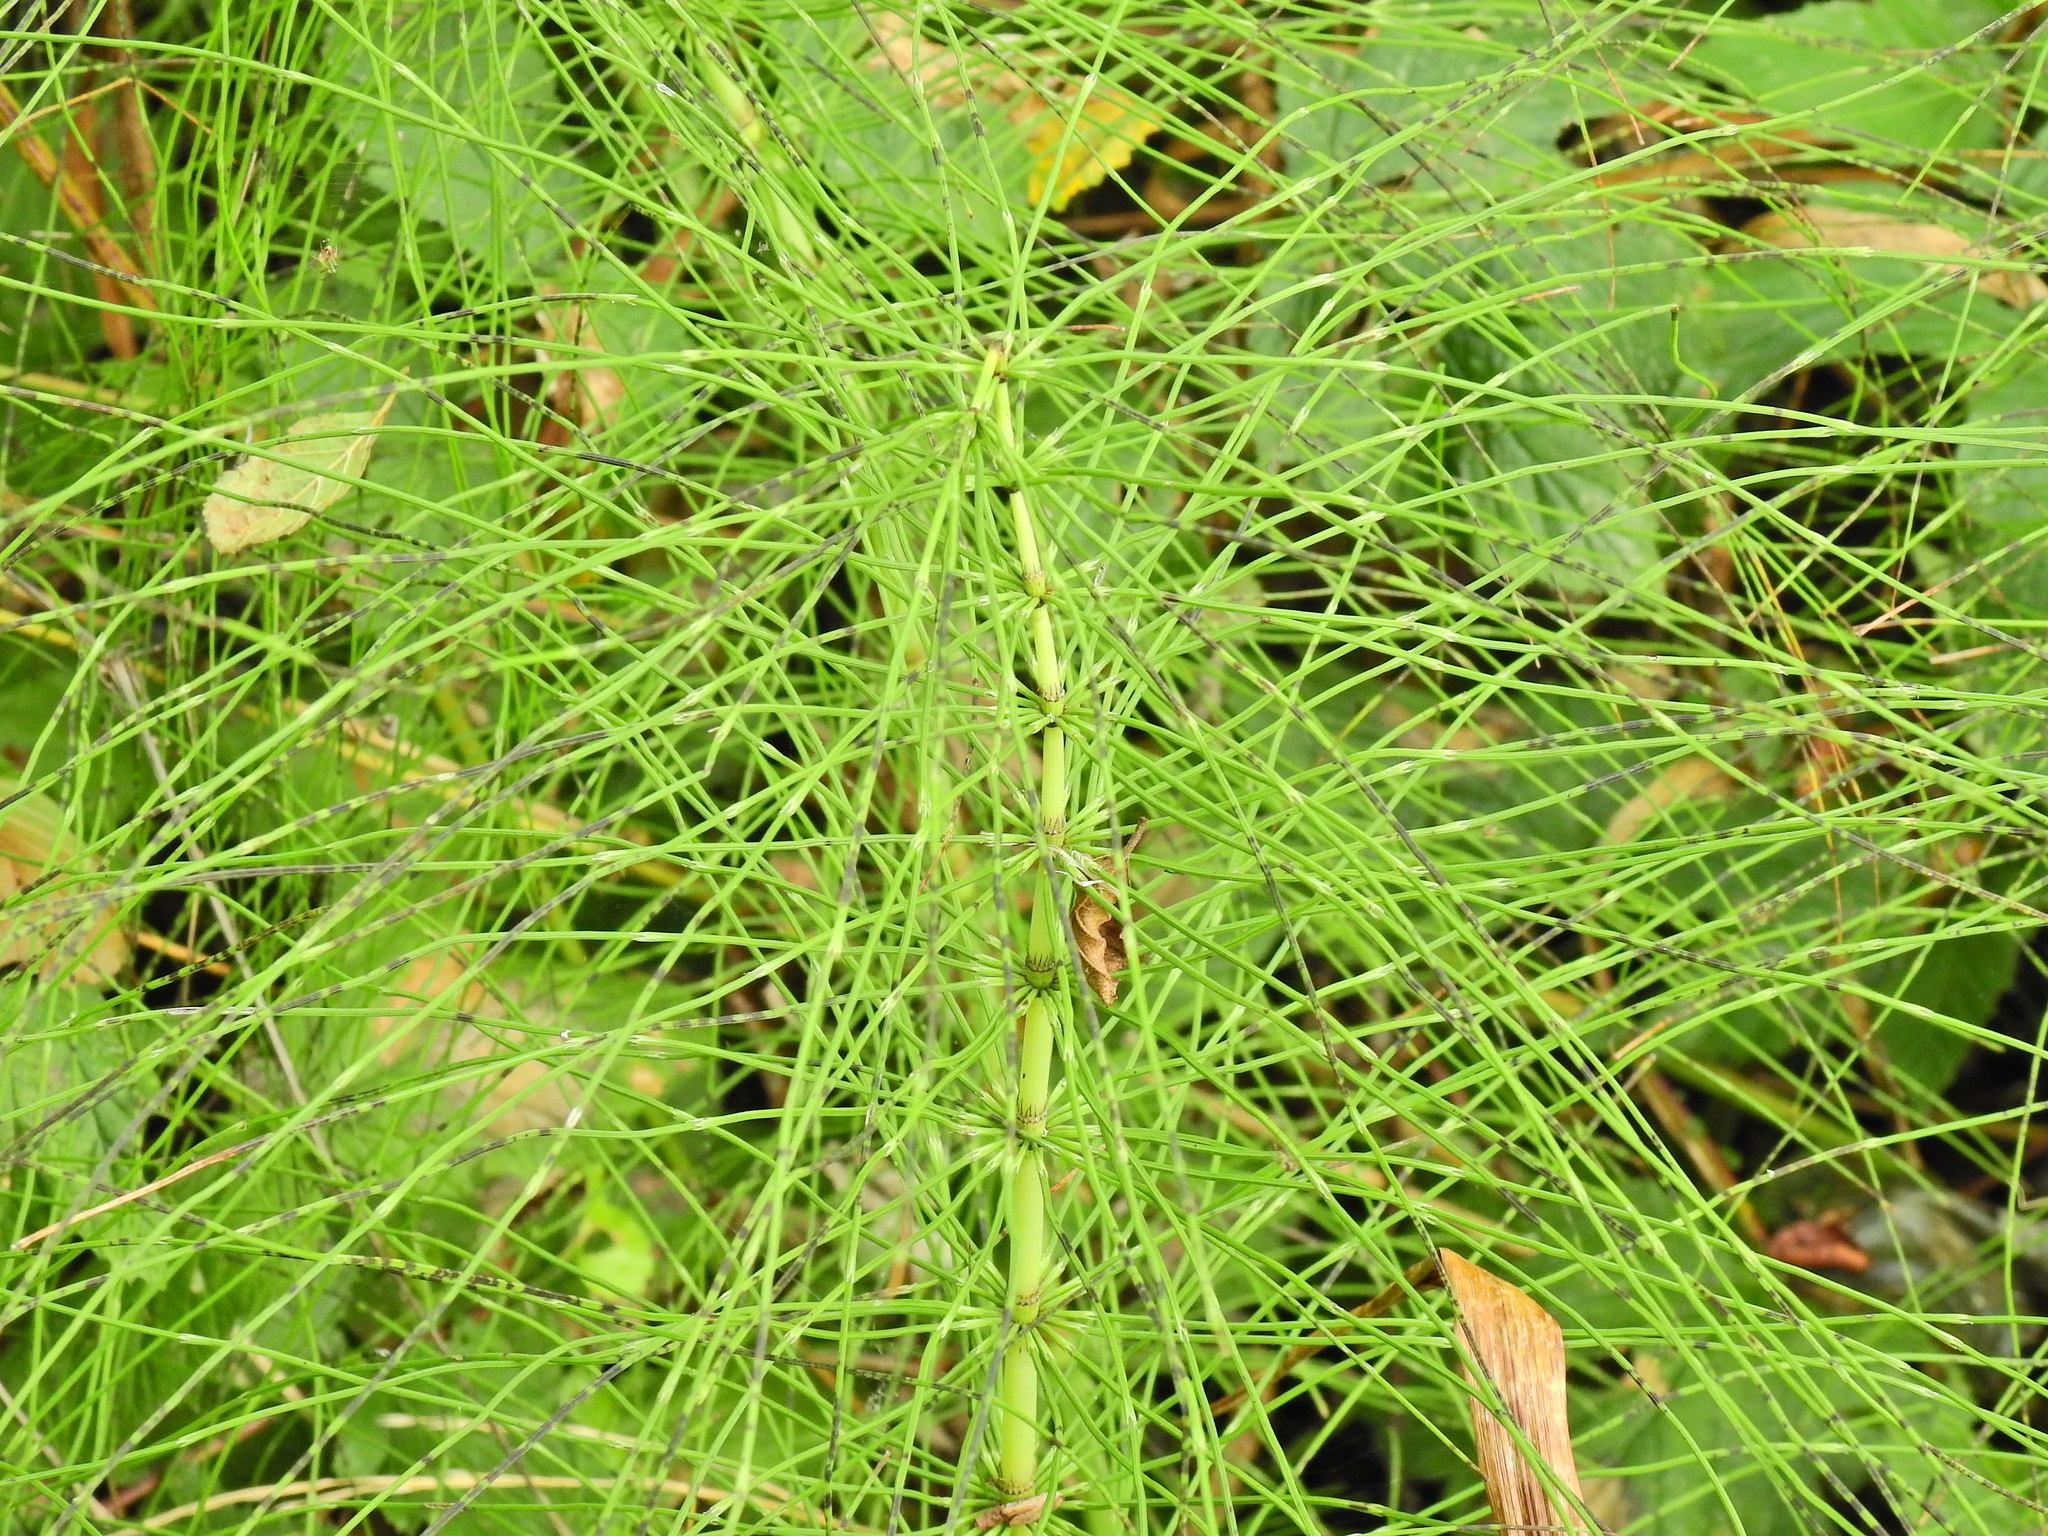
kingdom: Plantae
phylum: Tracheophyta
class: Polypodiopsida
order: Equisetales
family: Equisetaceae
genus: Equisetum
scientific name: Equisetum telmateia
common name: Great horsetail
